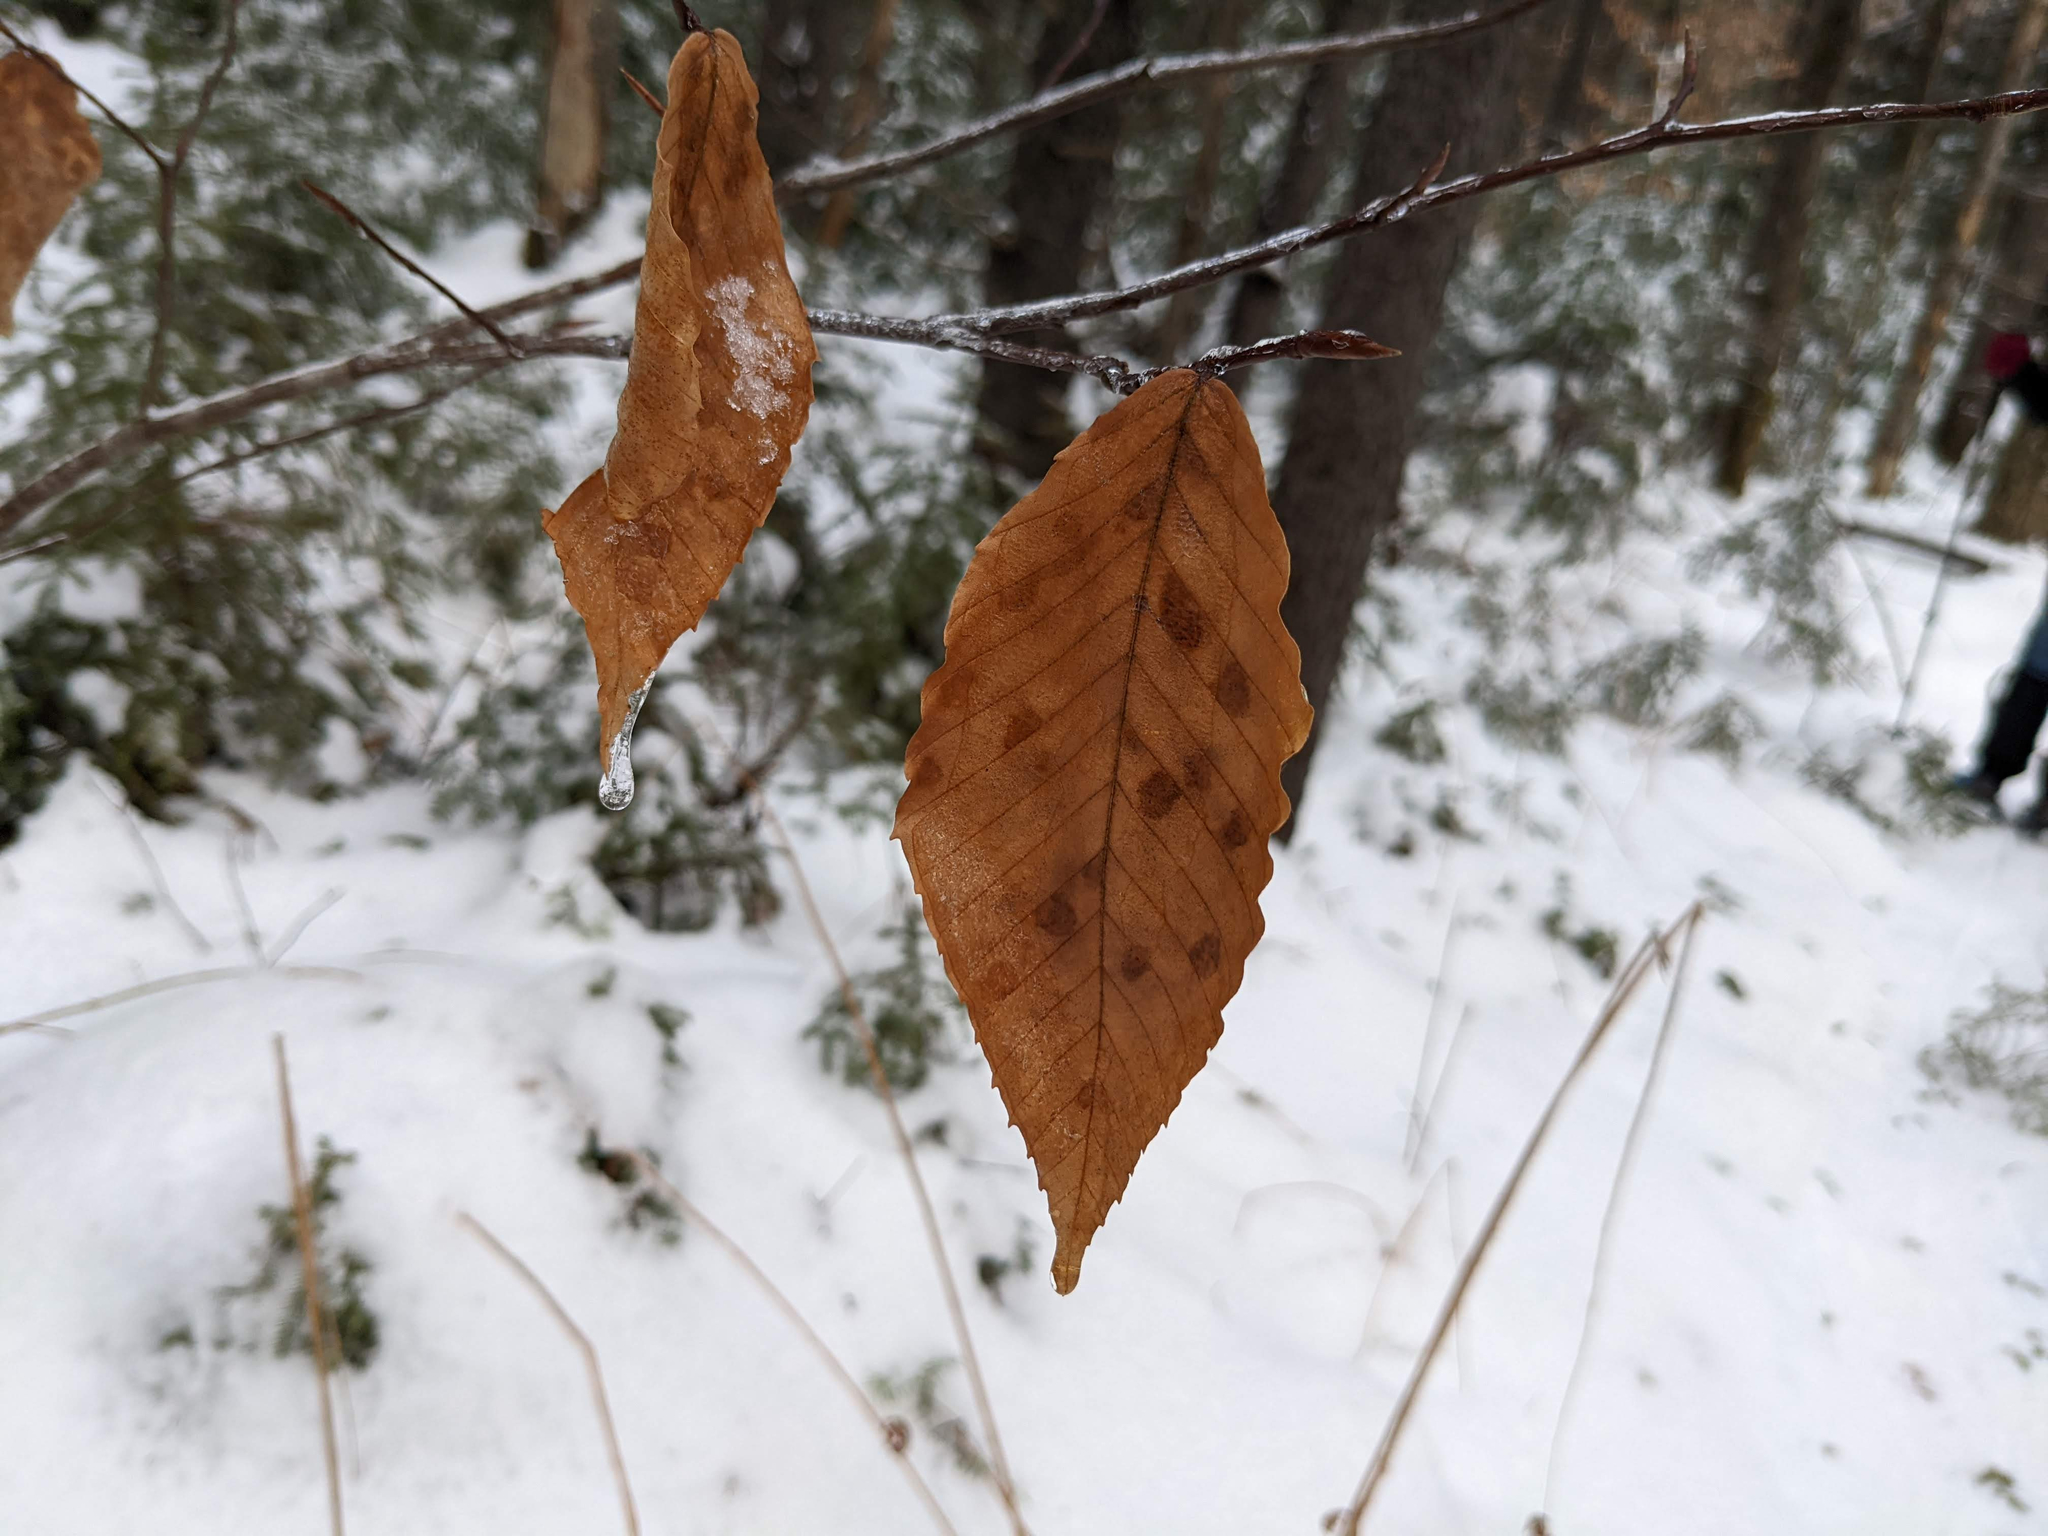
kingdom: Plantae
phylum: Tracheophyta
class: Magnoliopsida
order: Fagales
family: Fagaceae
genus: Fagus
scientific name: Fagus grandifolia
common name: American beech
